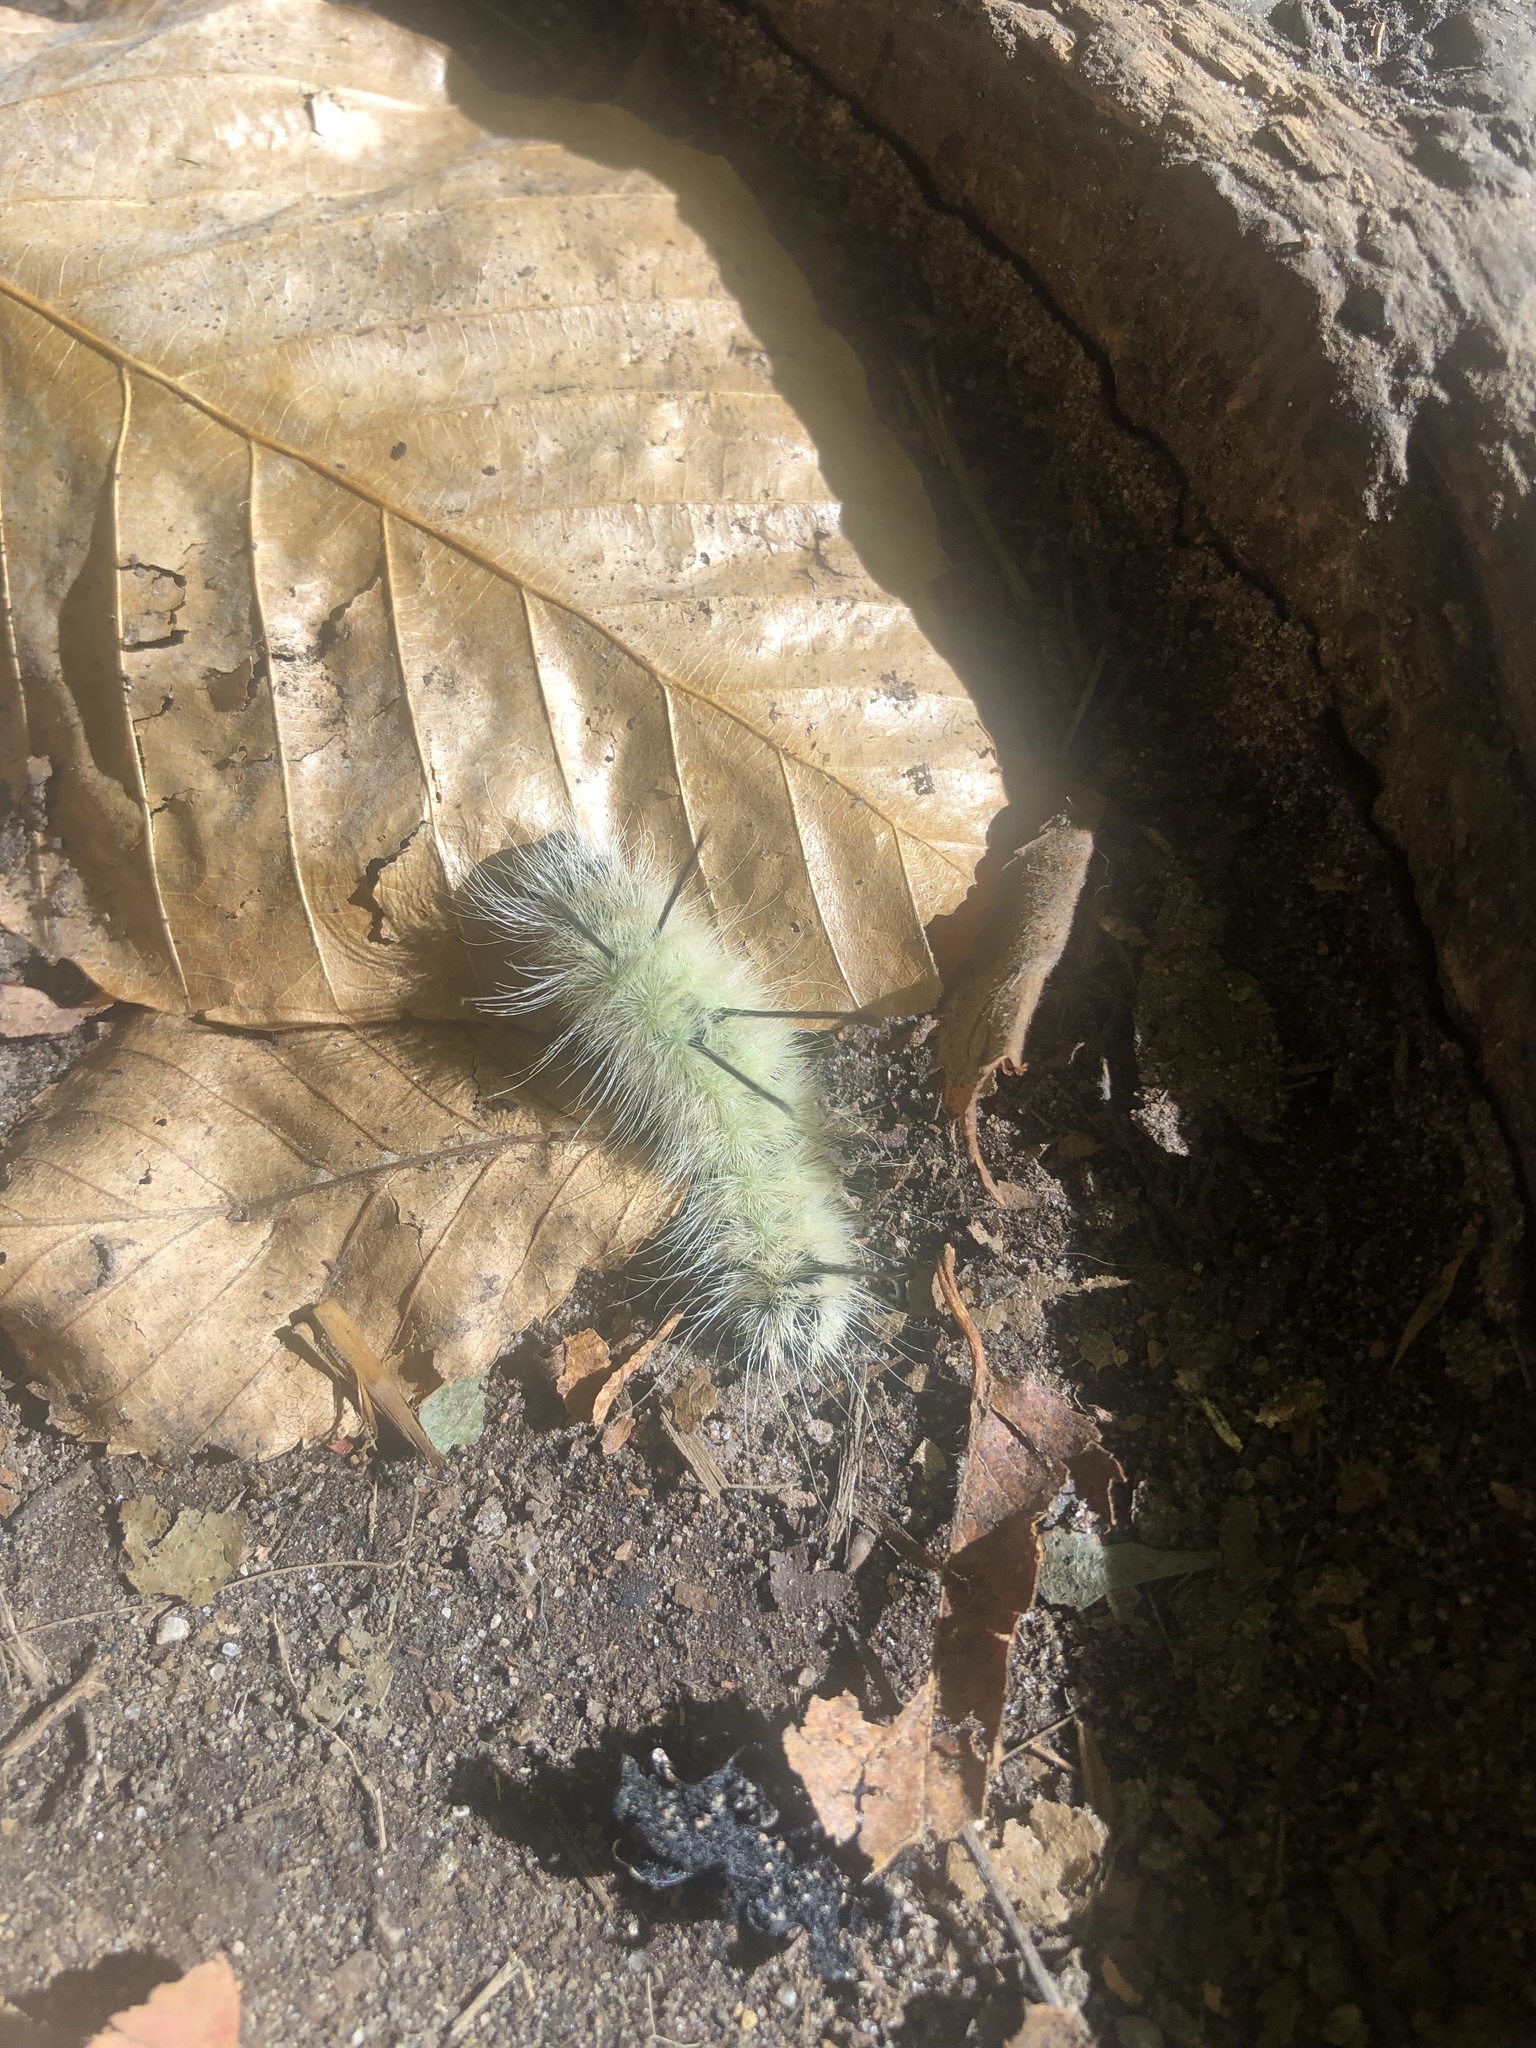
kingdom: Animalia
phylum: Arthropoda
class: Insecta
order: Lepidoptera
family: Noctuidae
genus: Acronicta
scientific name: Acronicta americana
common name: American dagger
